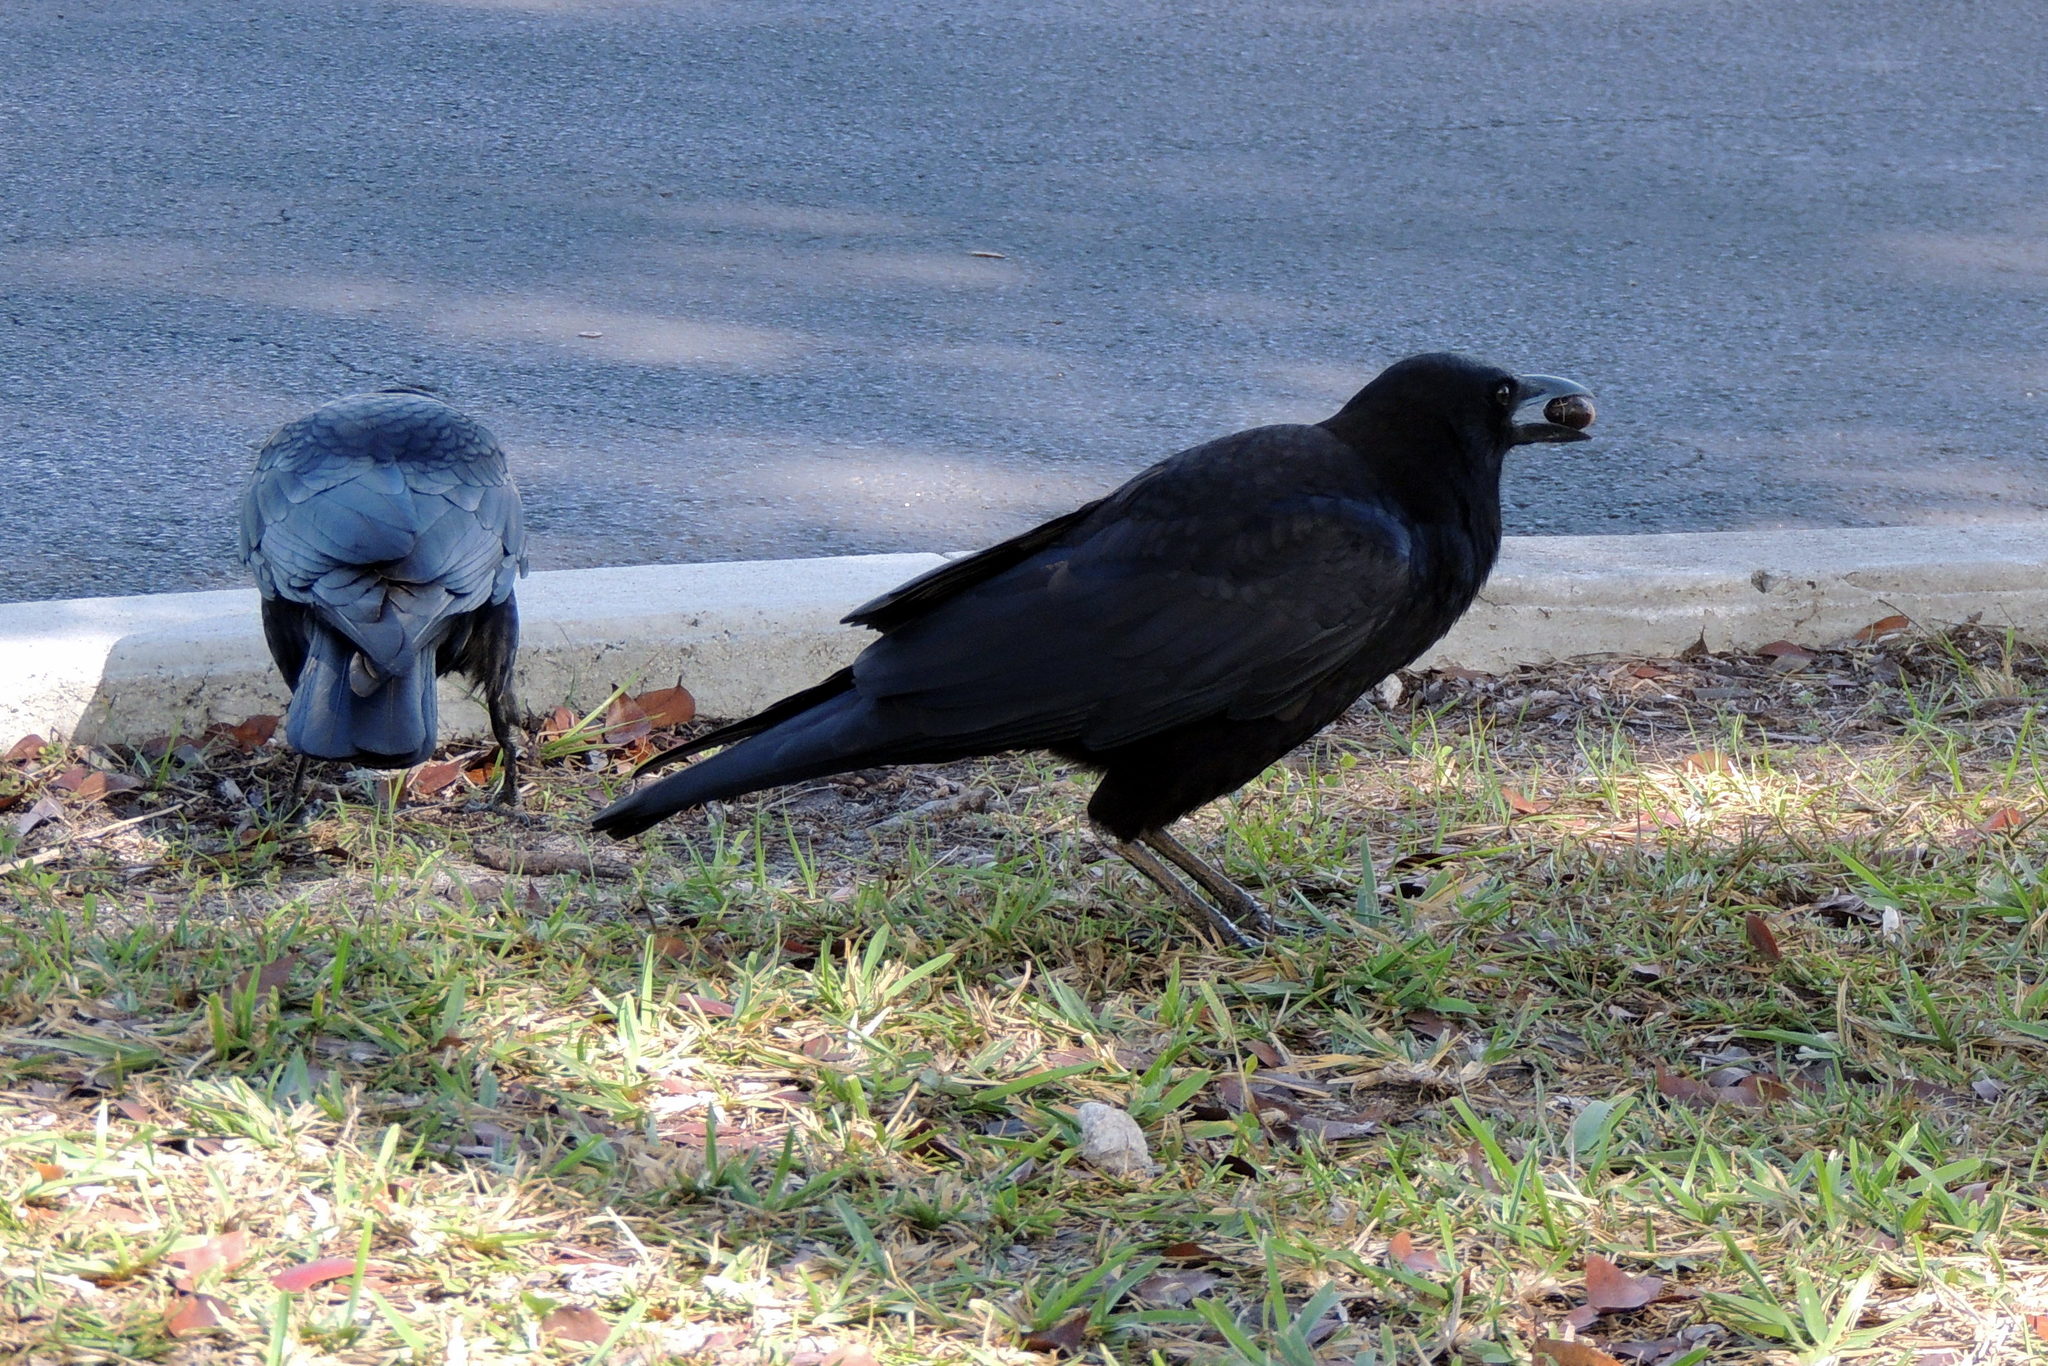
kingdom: Animalia
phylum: Chordata
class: Aves
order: Passeriformes
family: Corvidae
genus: Corvus
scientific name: Corvus brachyrhynchos
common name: American crow
